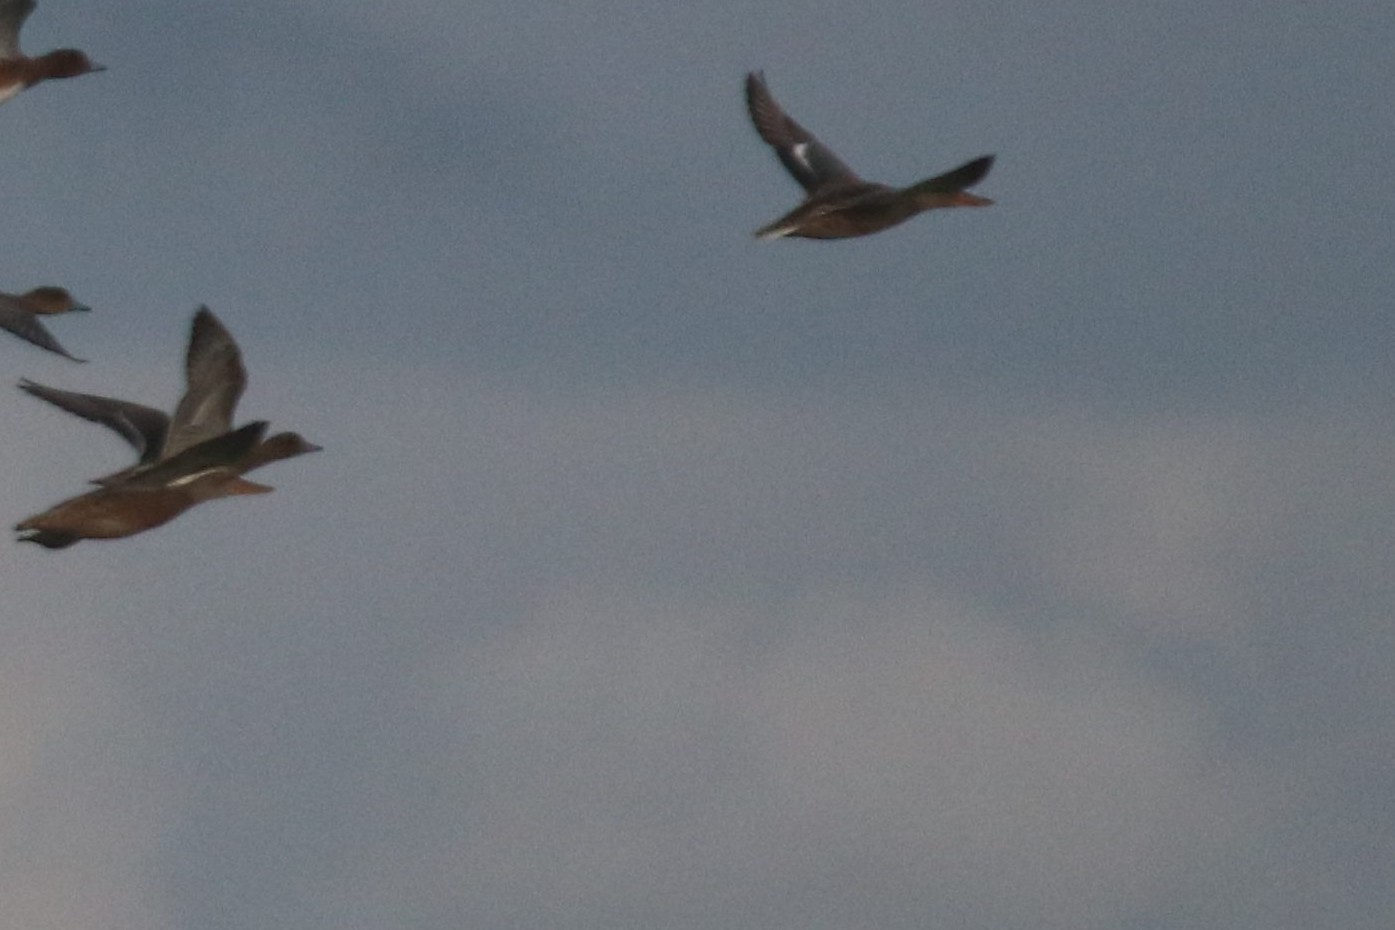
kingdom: Animalia
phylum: Chordata
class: Aves
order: Anseriformes
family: Anatidae
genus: Spatula
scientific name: Spatula clypeata
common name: Northern shoveler
